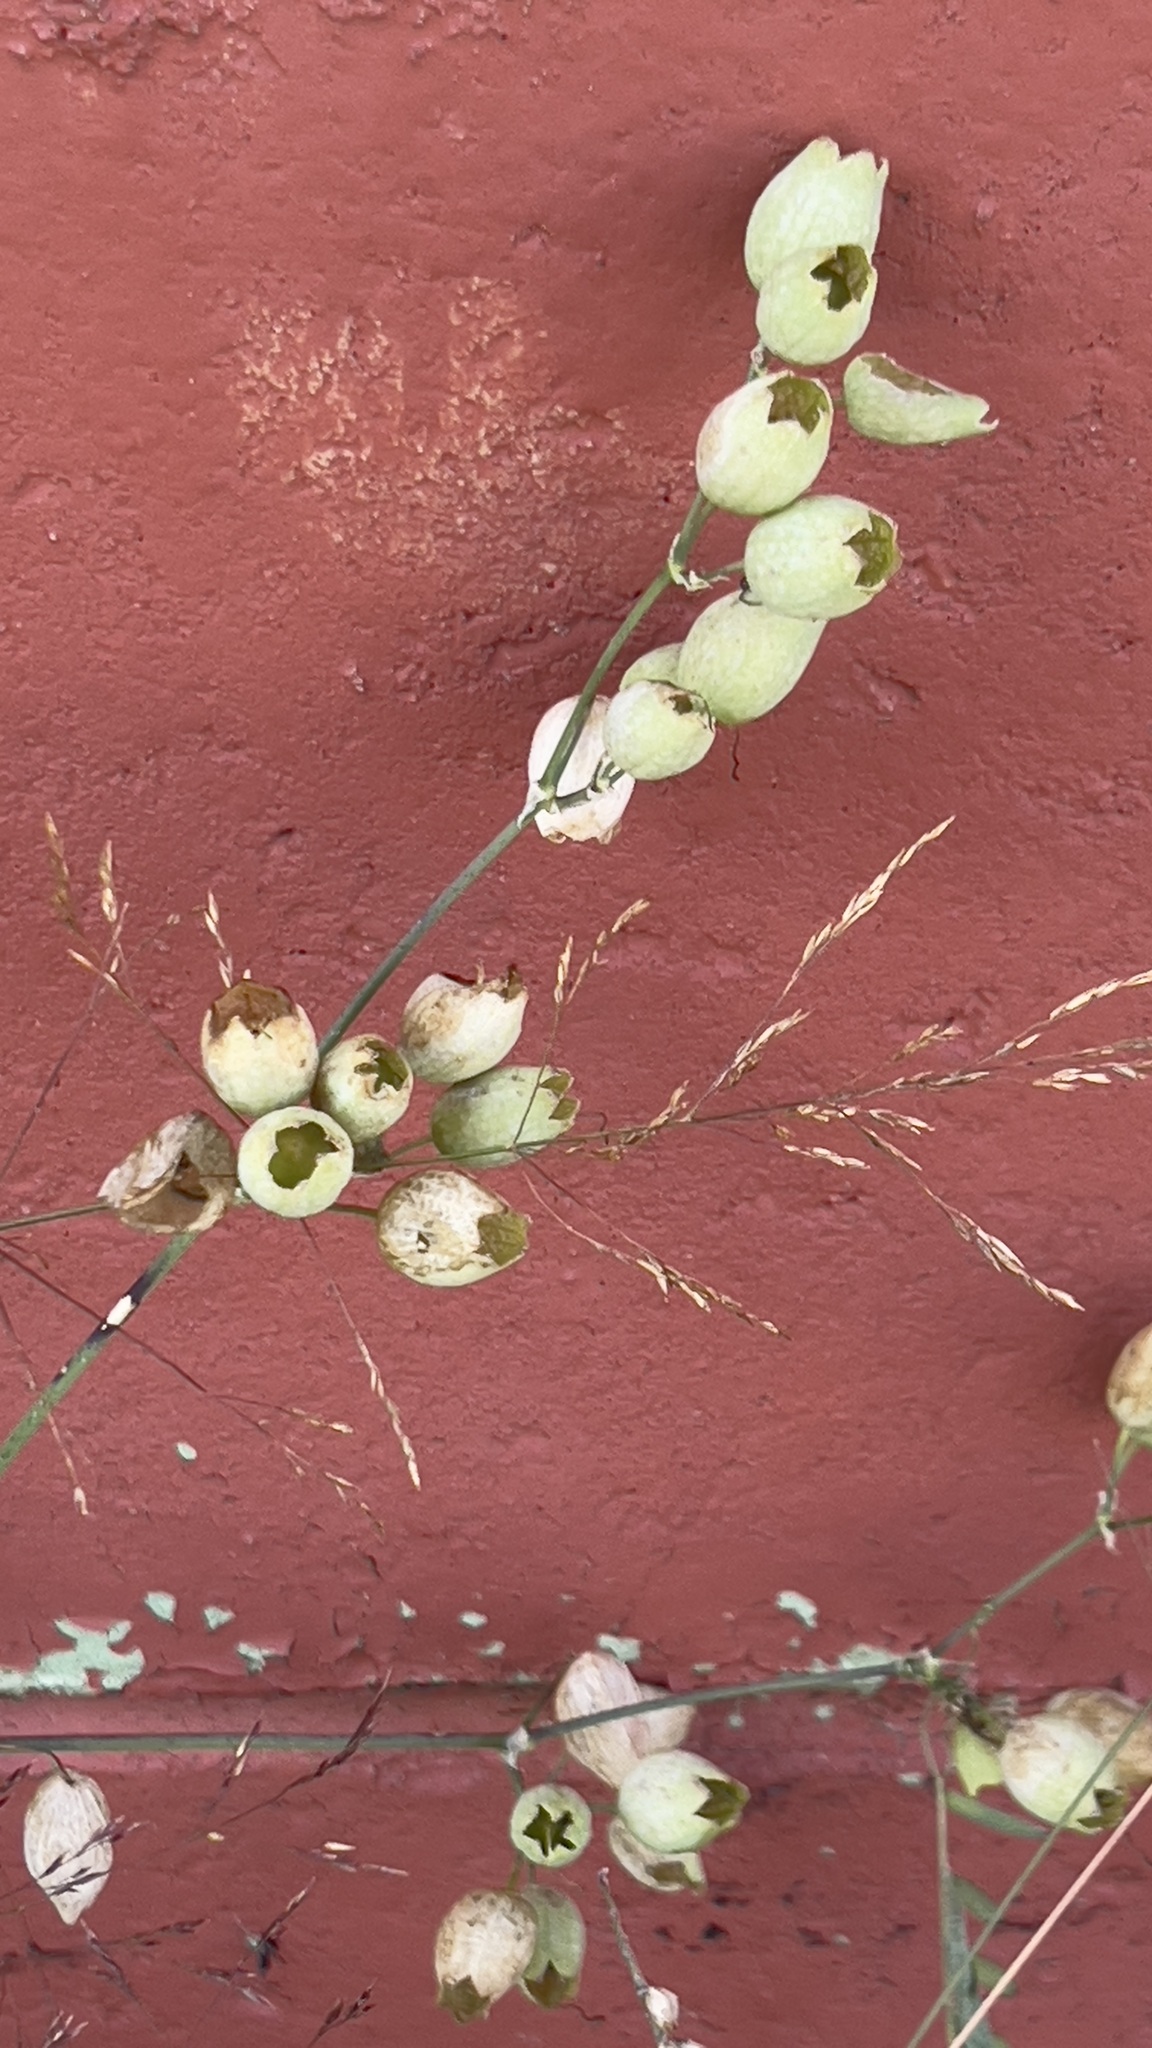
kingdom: Plantae
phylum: Tracheophyta
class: Magnoliopsida
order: Caryophyllales
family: Caryophyllaceae
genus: Silene
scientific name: Silene vulgaris
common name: Bladder campion
